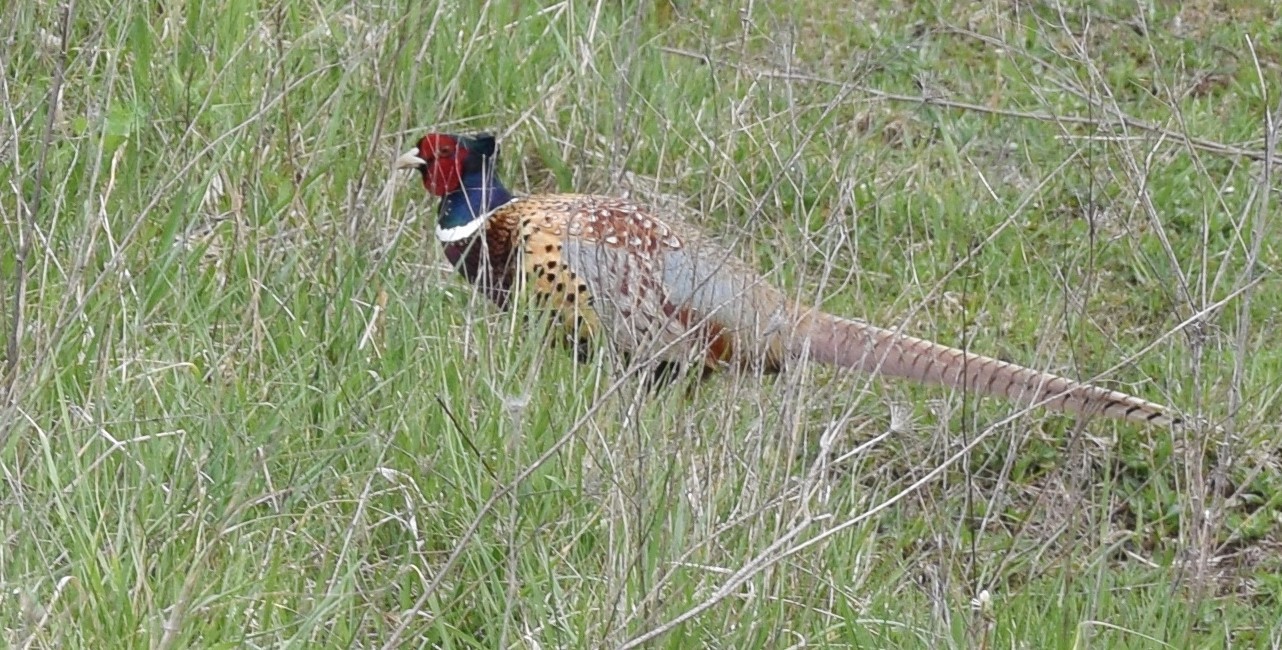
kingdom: Animalia
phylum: Chordata
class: Aves
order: Galliformes
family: Phasianidae
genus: Phasianus
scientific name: Phasianus colchicus
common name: Common pheasant
